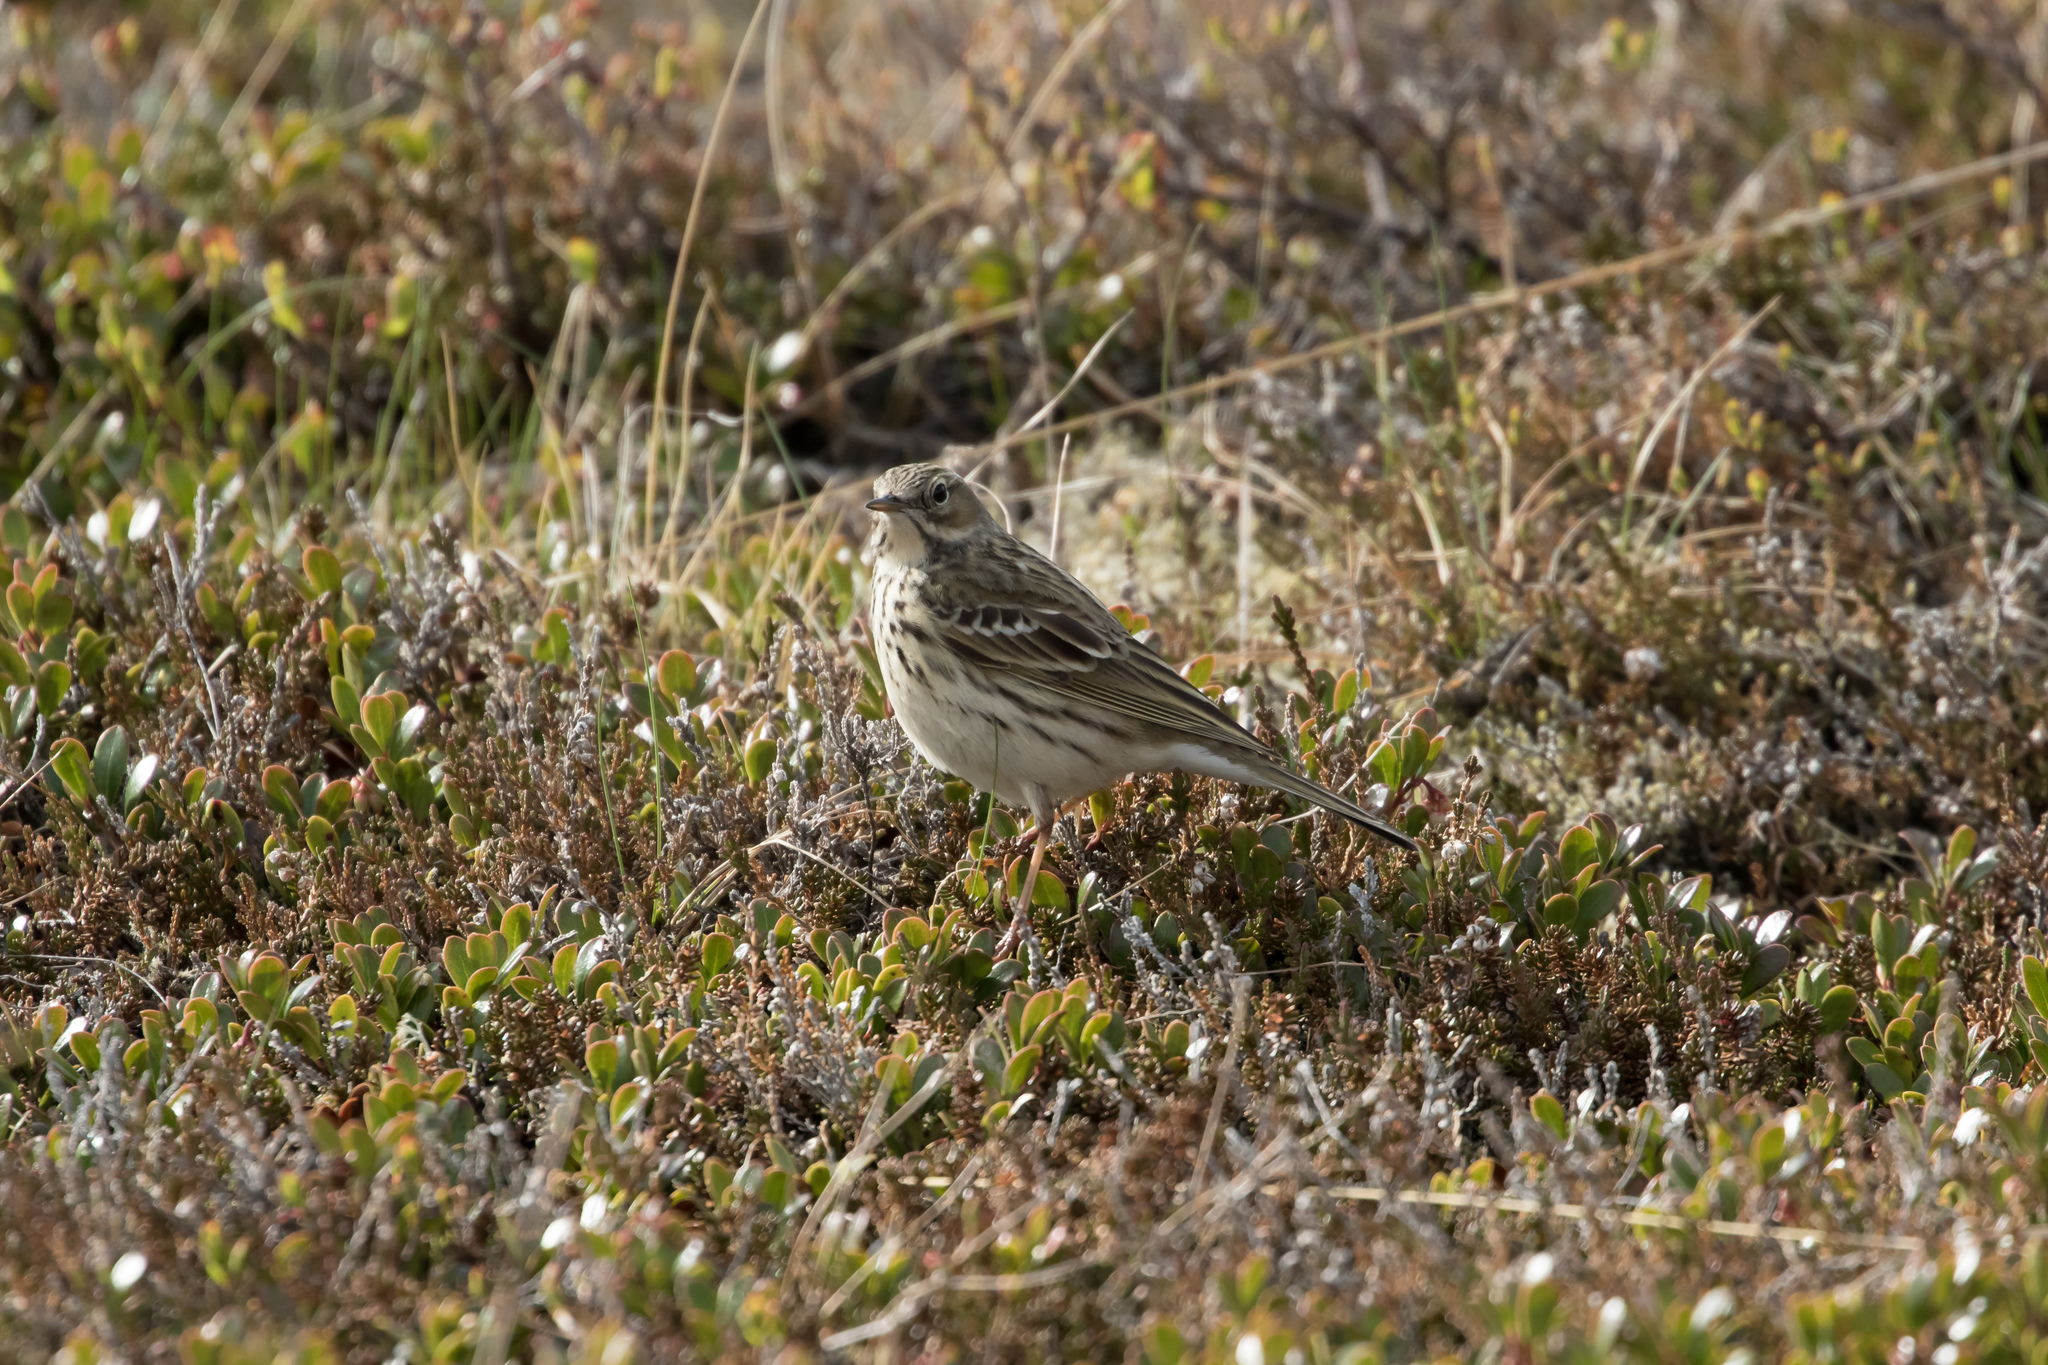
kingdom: Animalia
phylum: Chordata
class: Aves
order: Passeriformes
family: Motacillidae
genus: Anthus
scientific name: Anthus pratensis
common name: Meadow pipit
